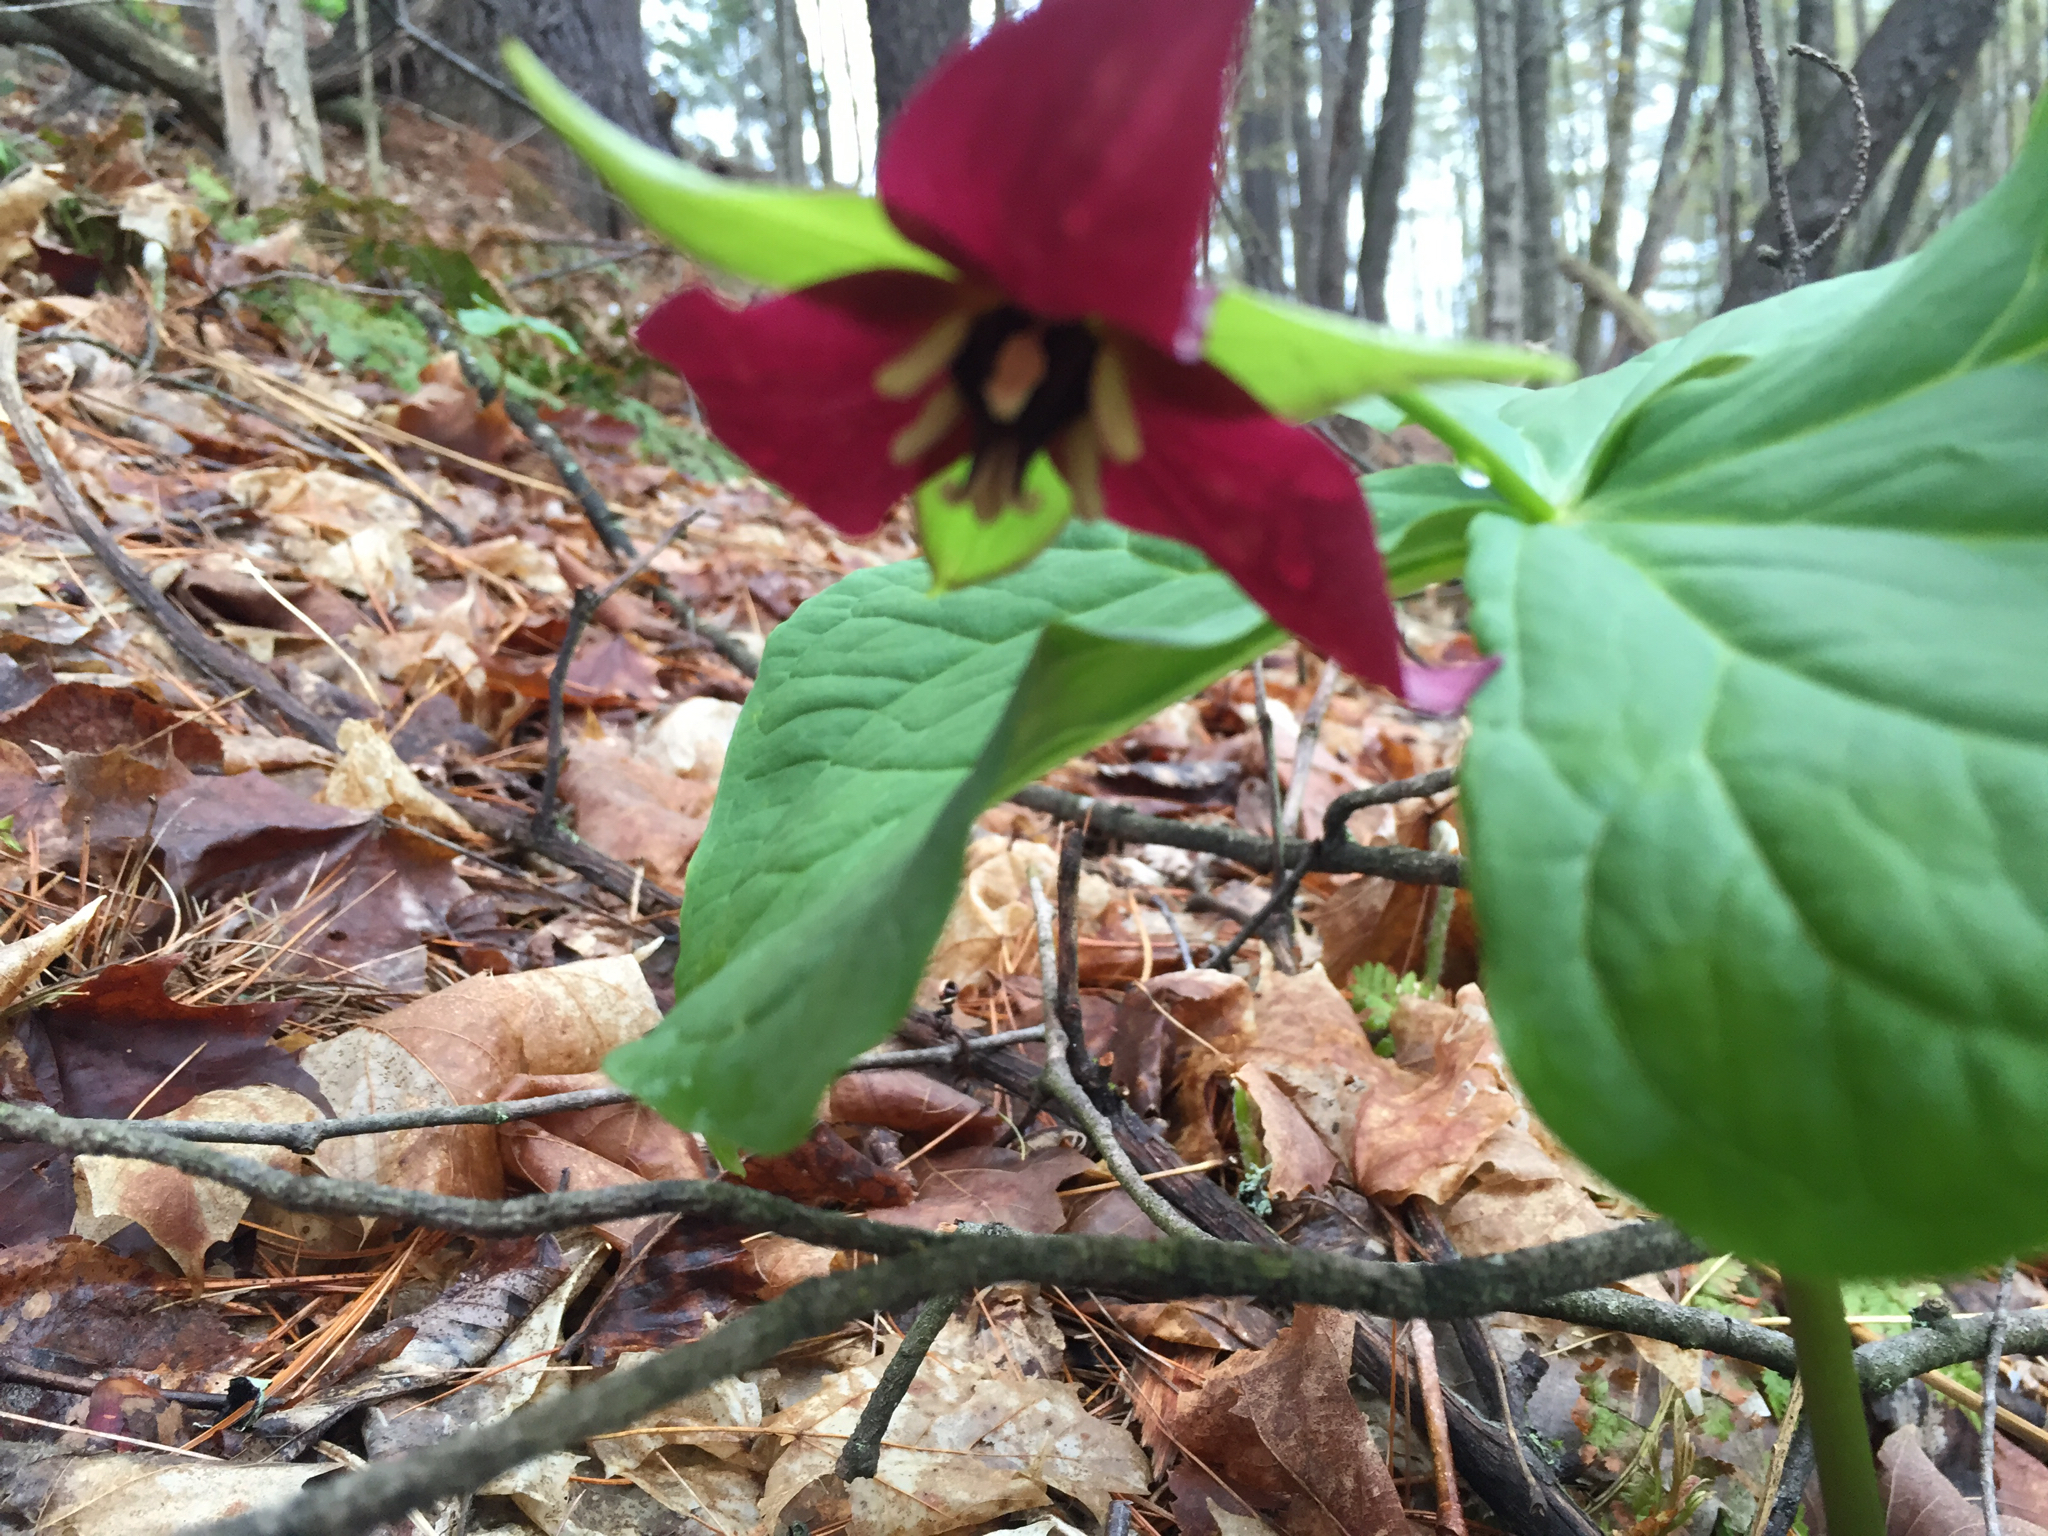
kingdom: Plantae
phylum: Tracheophyta
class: Liliopsida
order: Liliales
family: Melanthiaceae
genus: Trillium
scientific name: Trillium erectum
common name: Purple trillium
